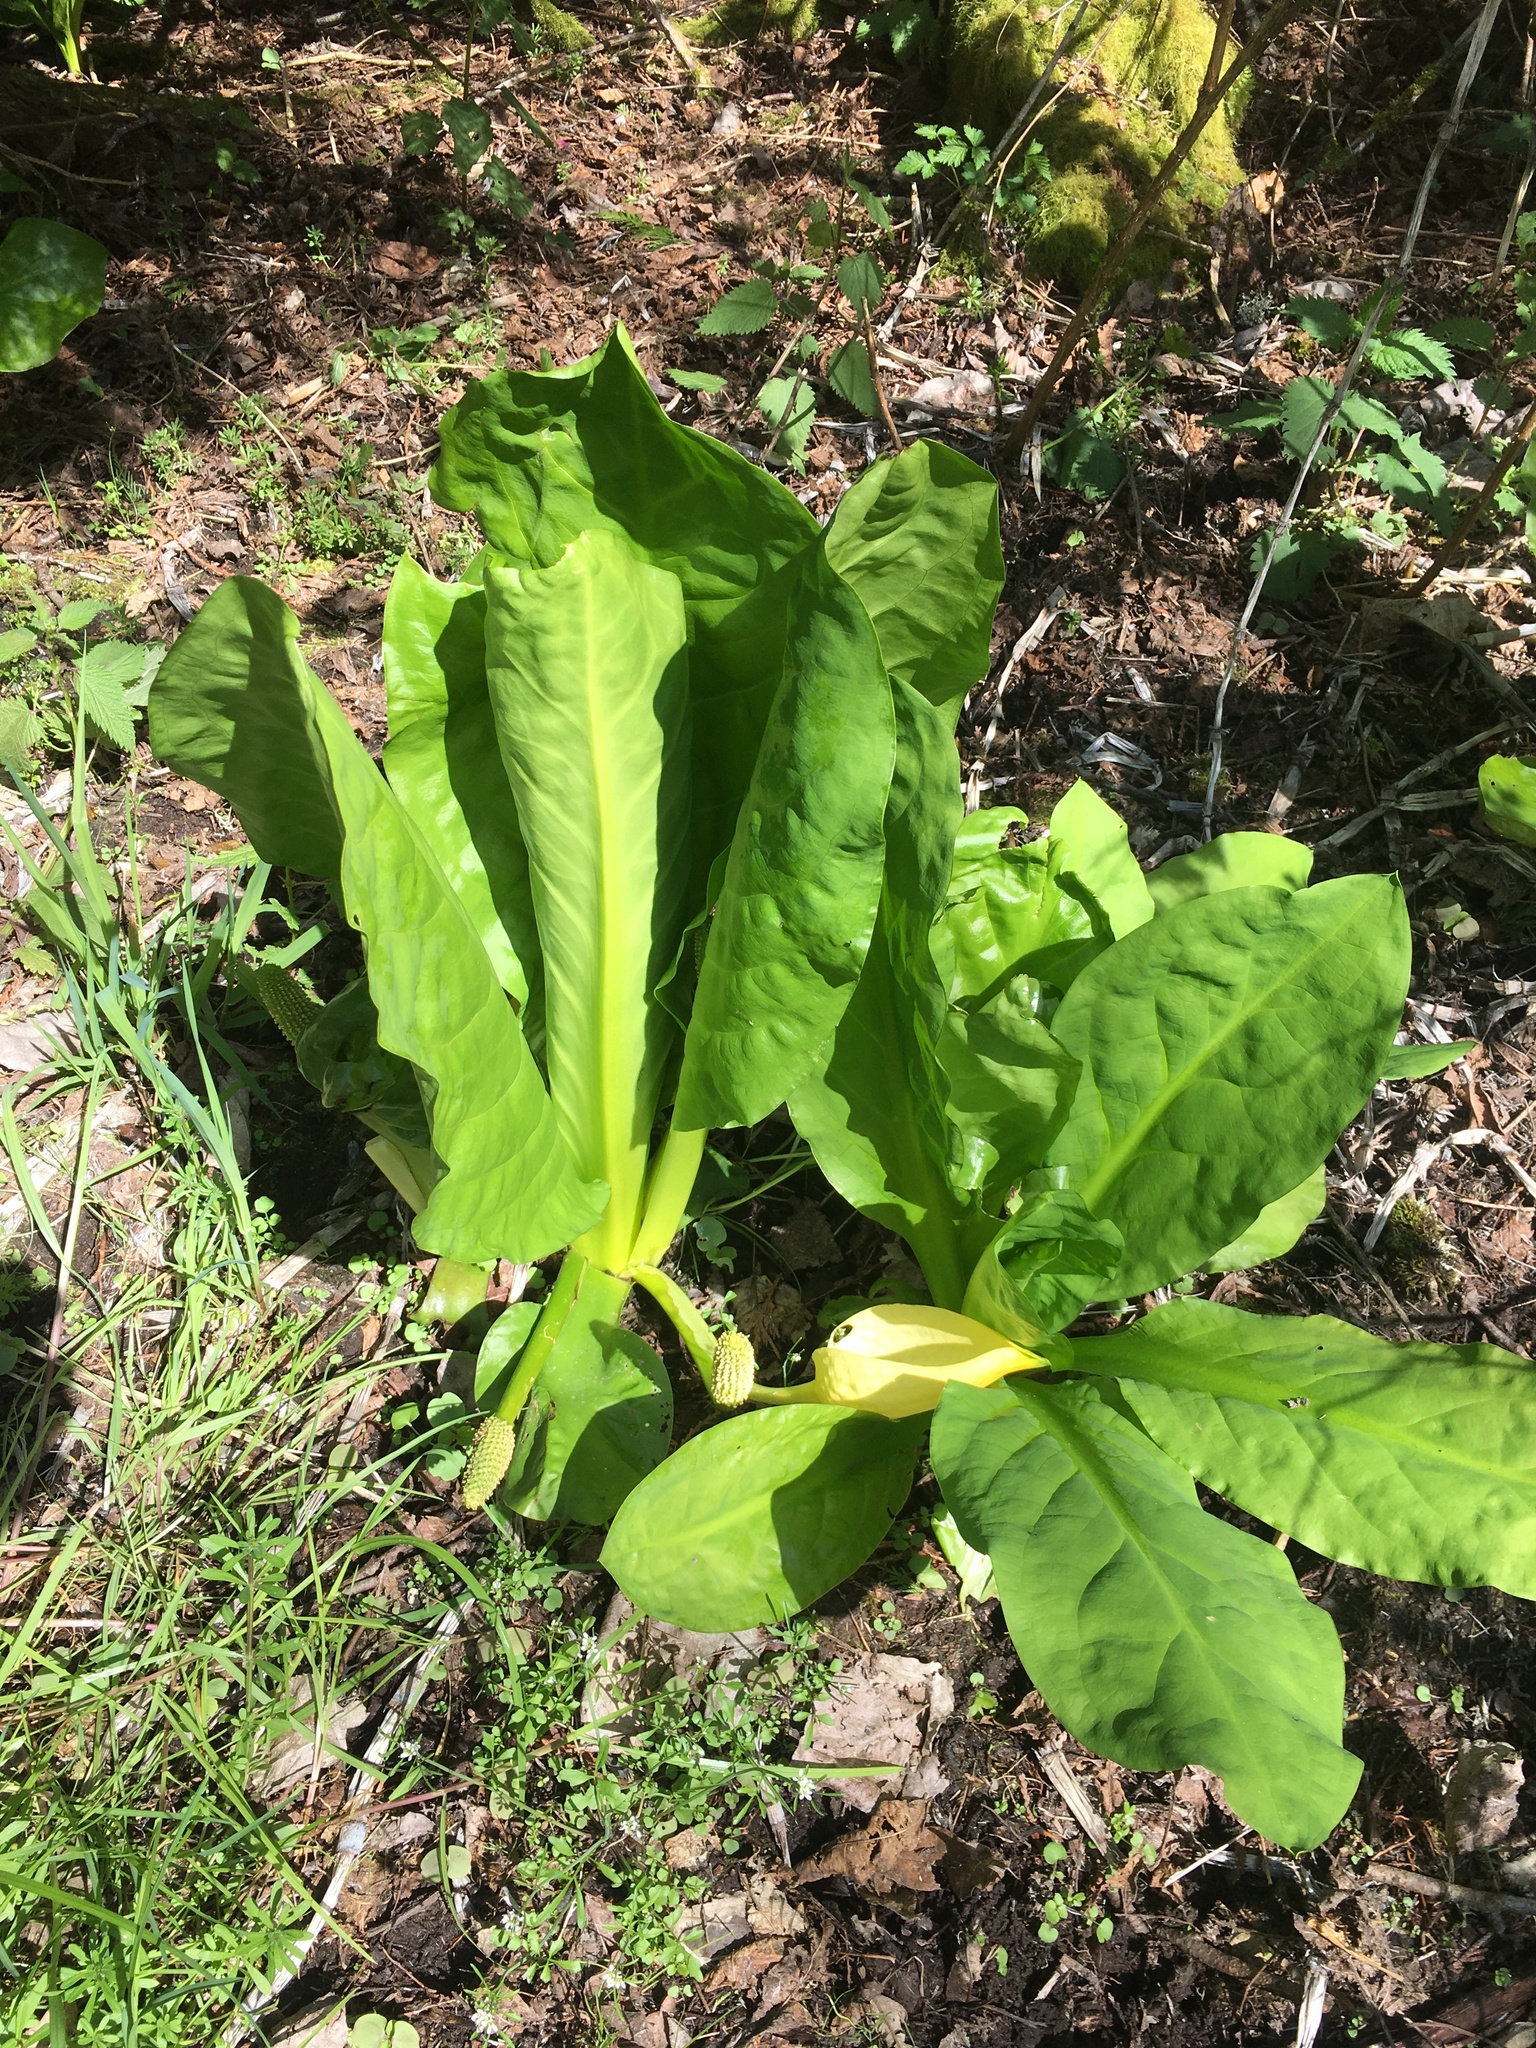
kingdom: Plantae
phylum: Tracheophyta
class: Liliopsida
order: Alismatales
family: Araceae
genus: Lysichiton
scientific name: Lysichiton americanus
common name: American skunk cabbage
